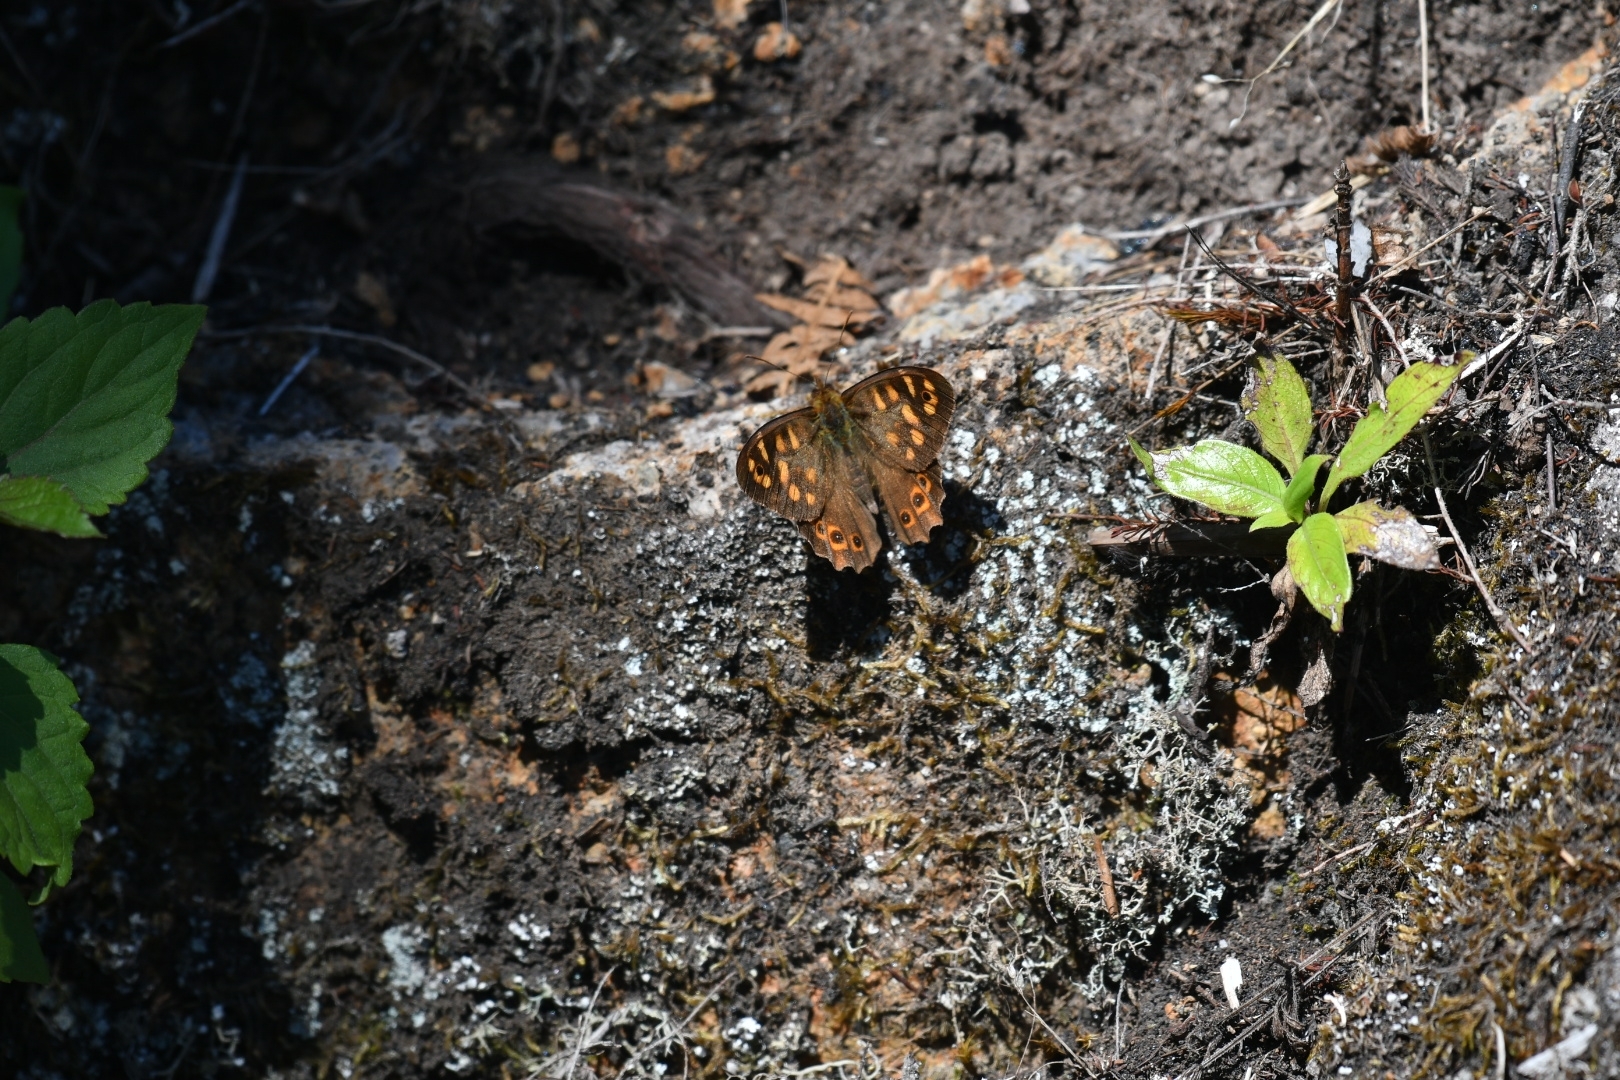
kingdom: Animalia
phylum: Arthropoda
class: Insecta
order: Lepidoptera
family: Nymphalidae
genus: Pararge
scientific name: Pararge aegeria
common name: Speckled wood
